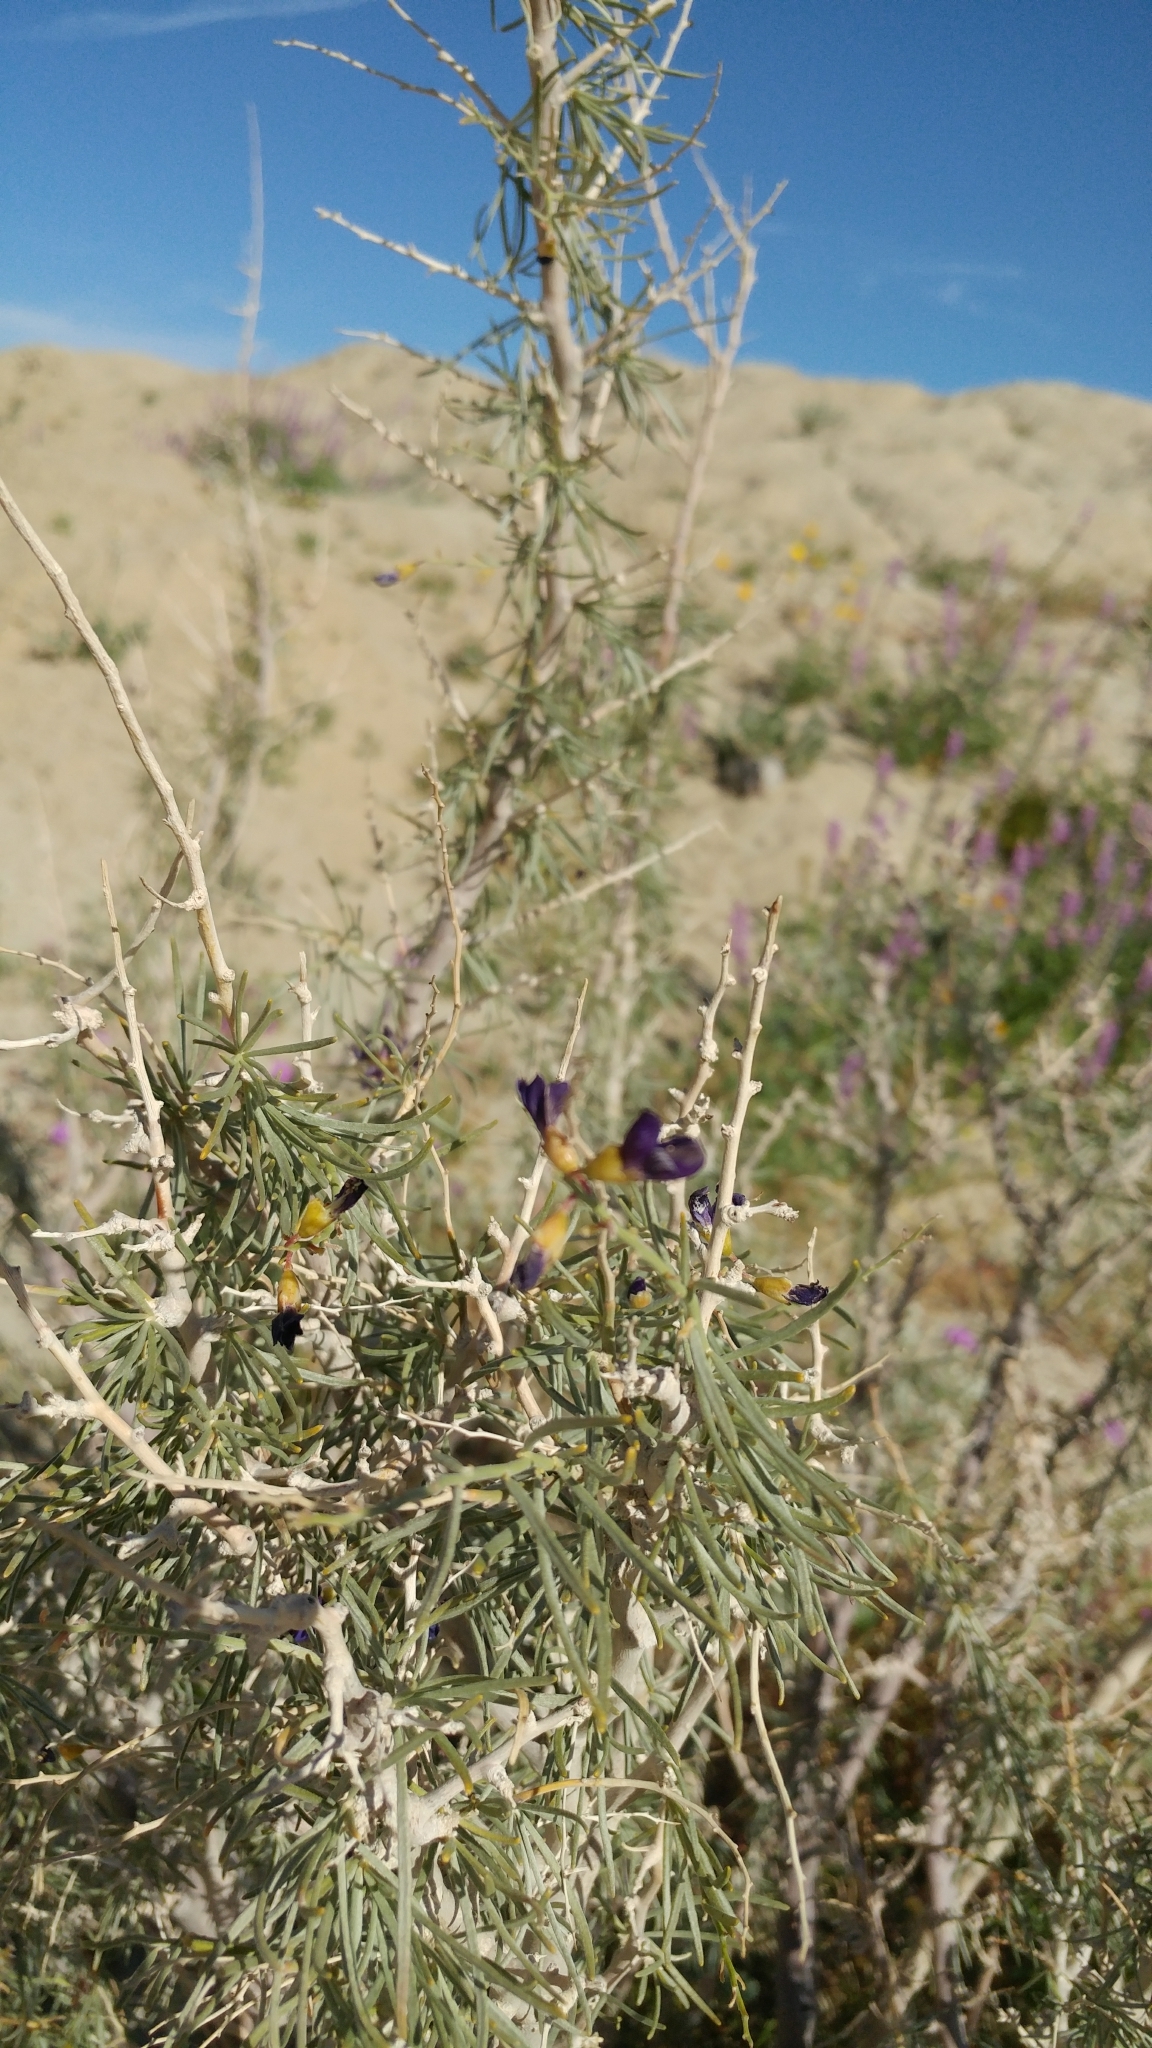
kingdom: Plantae
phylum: Tracheophyta
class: Magnoliopsida
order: Fabales
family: Fabaceae
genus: Psorothamnus
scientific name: Psorothamnus schottii
